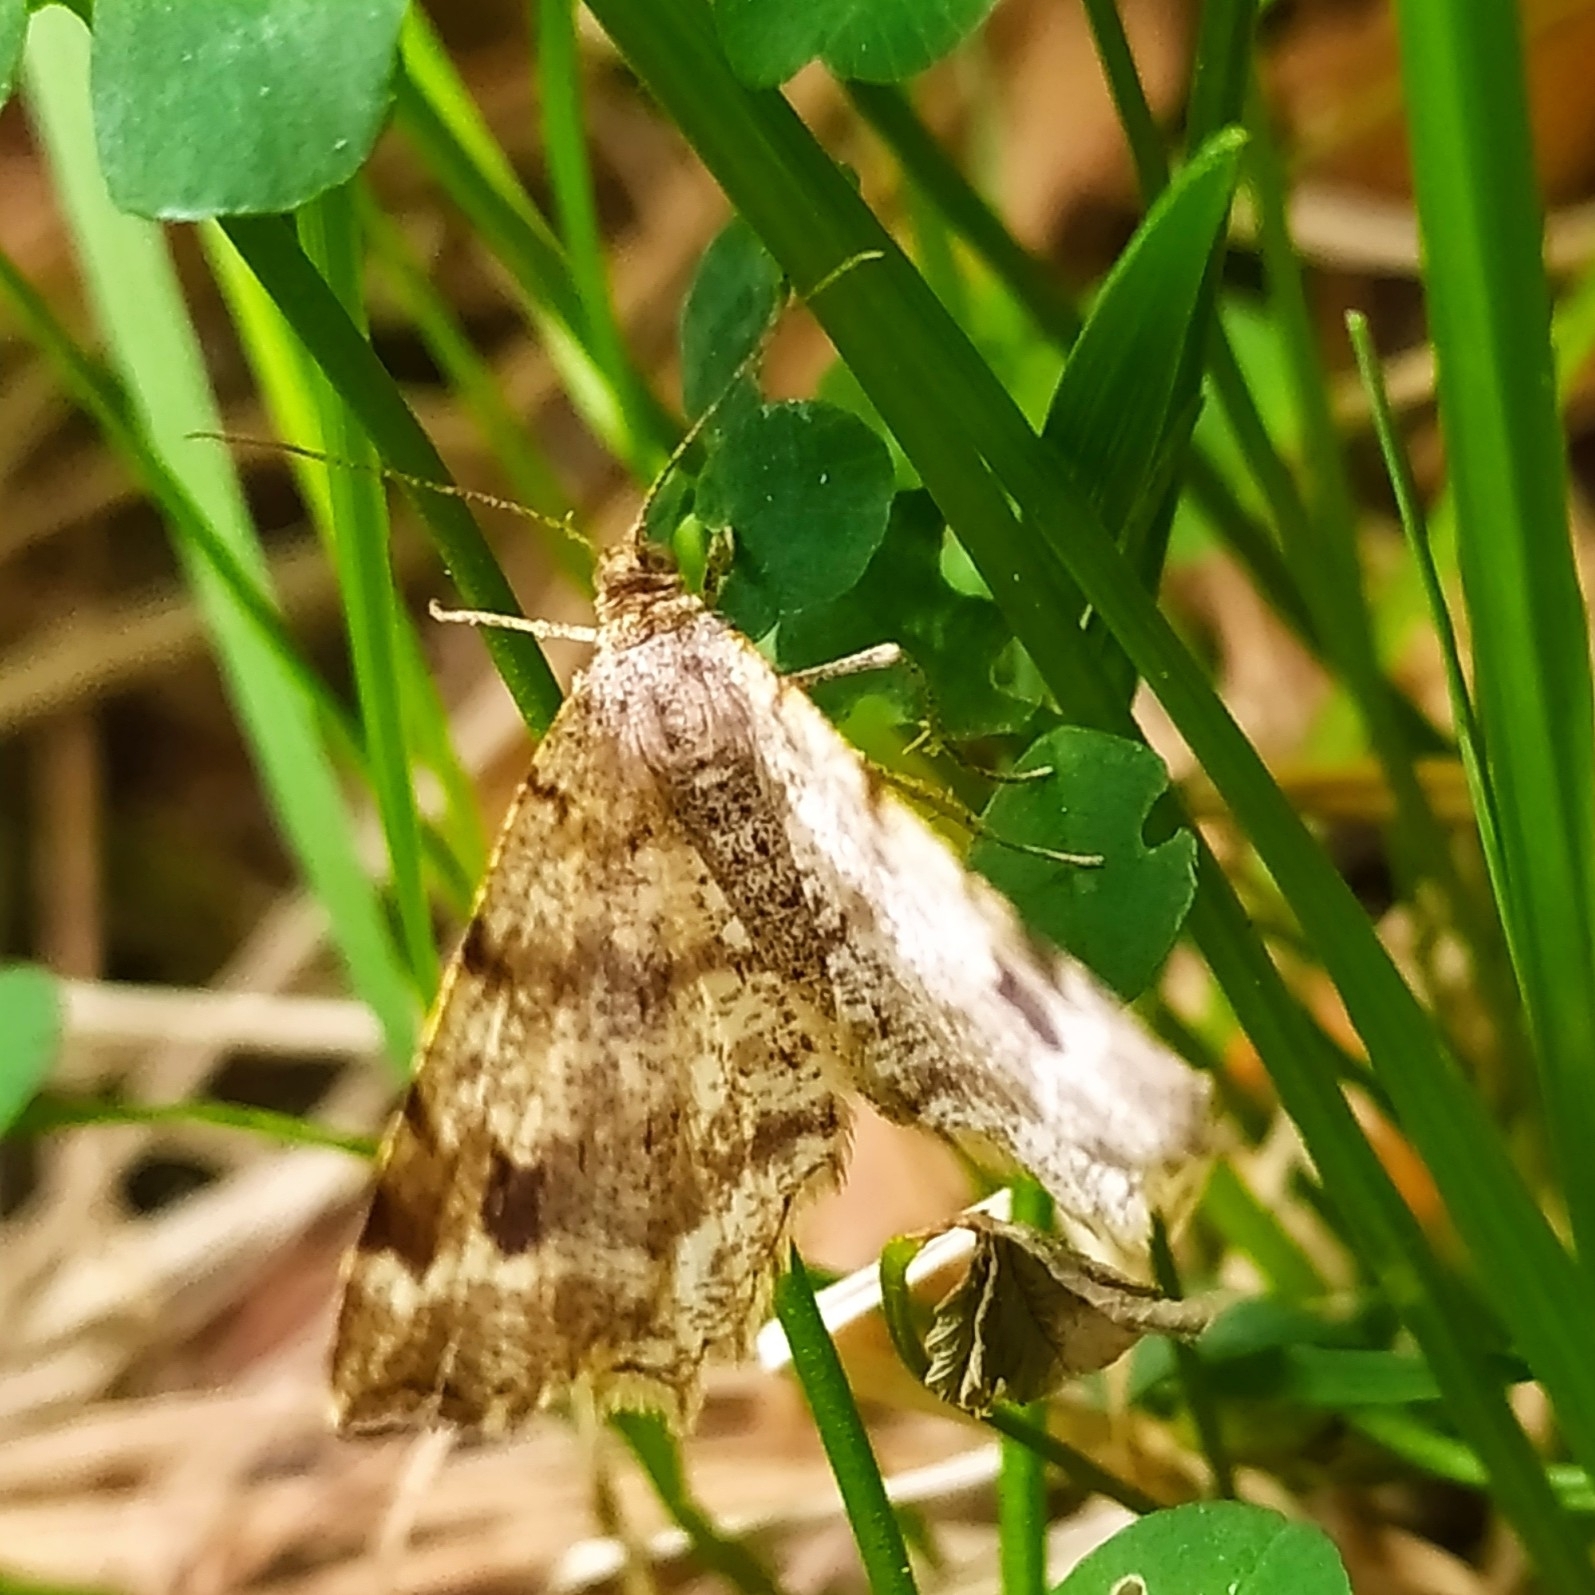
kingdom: Animalia
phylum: Arthropoda
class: Insecta
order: Lepidoptera
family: Geometridae
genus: Macaria
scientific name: Macaria signaria
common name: Dusky peacock
